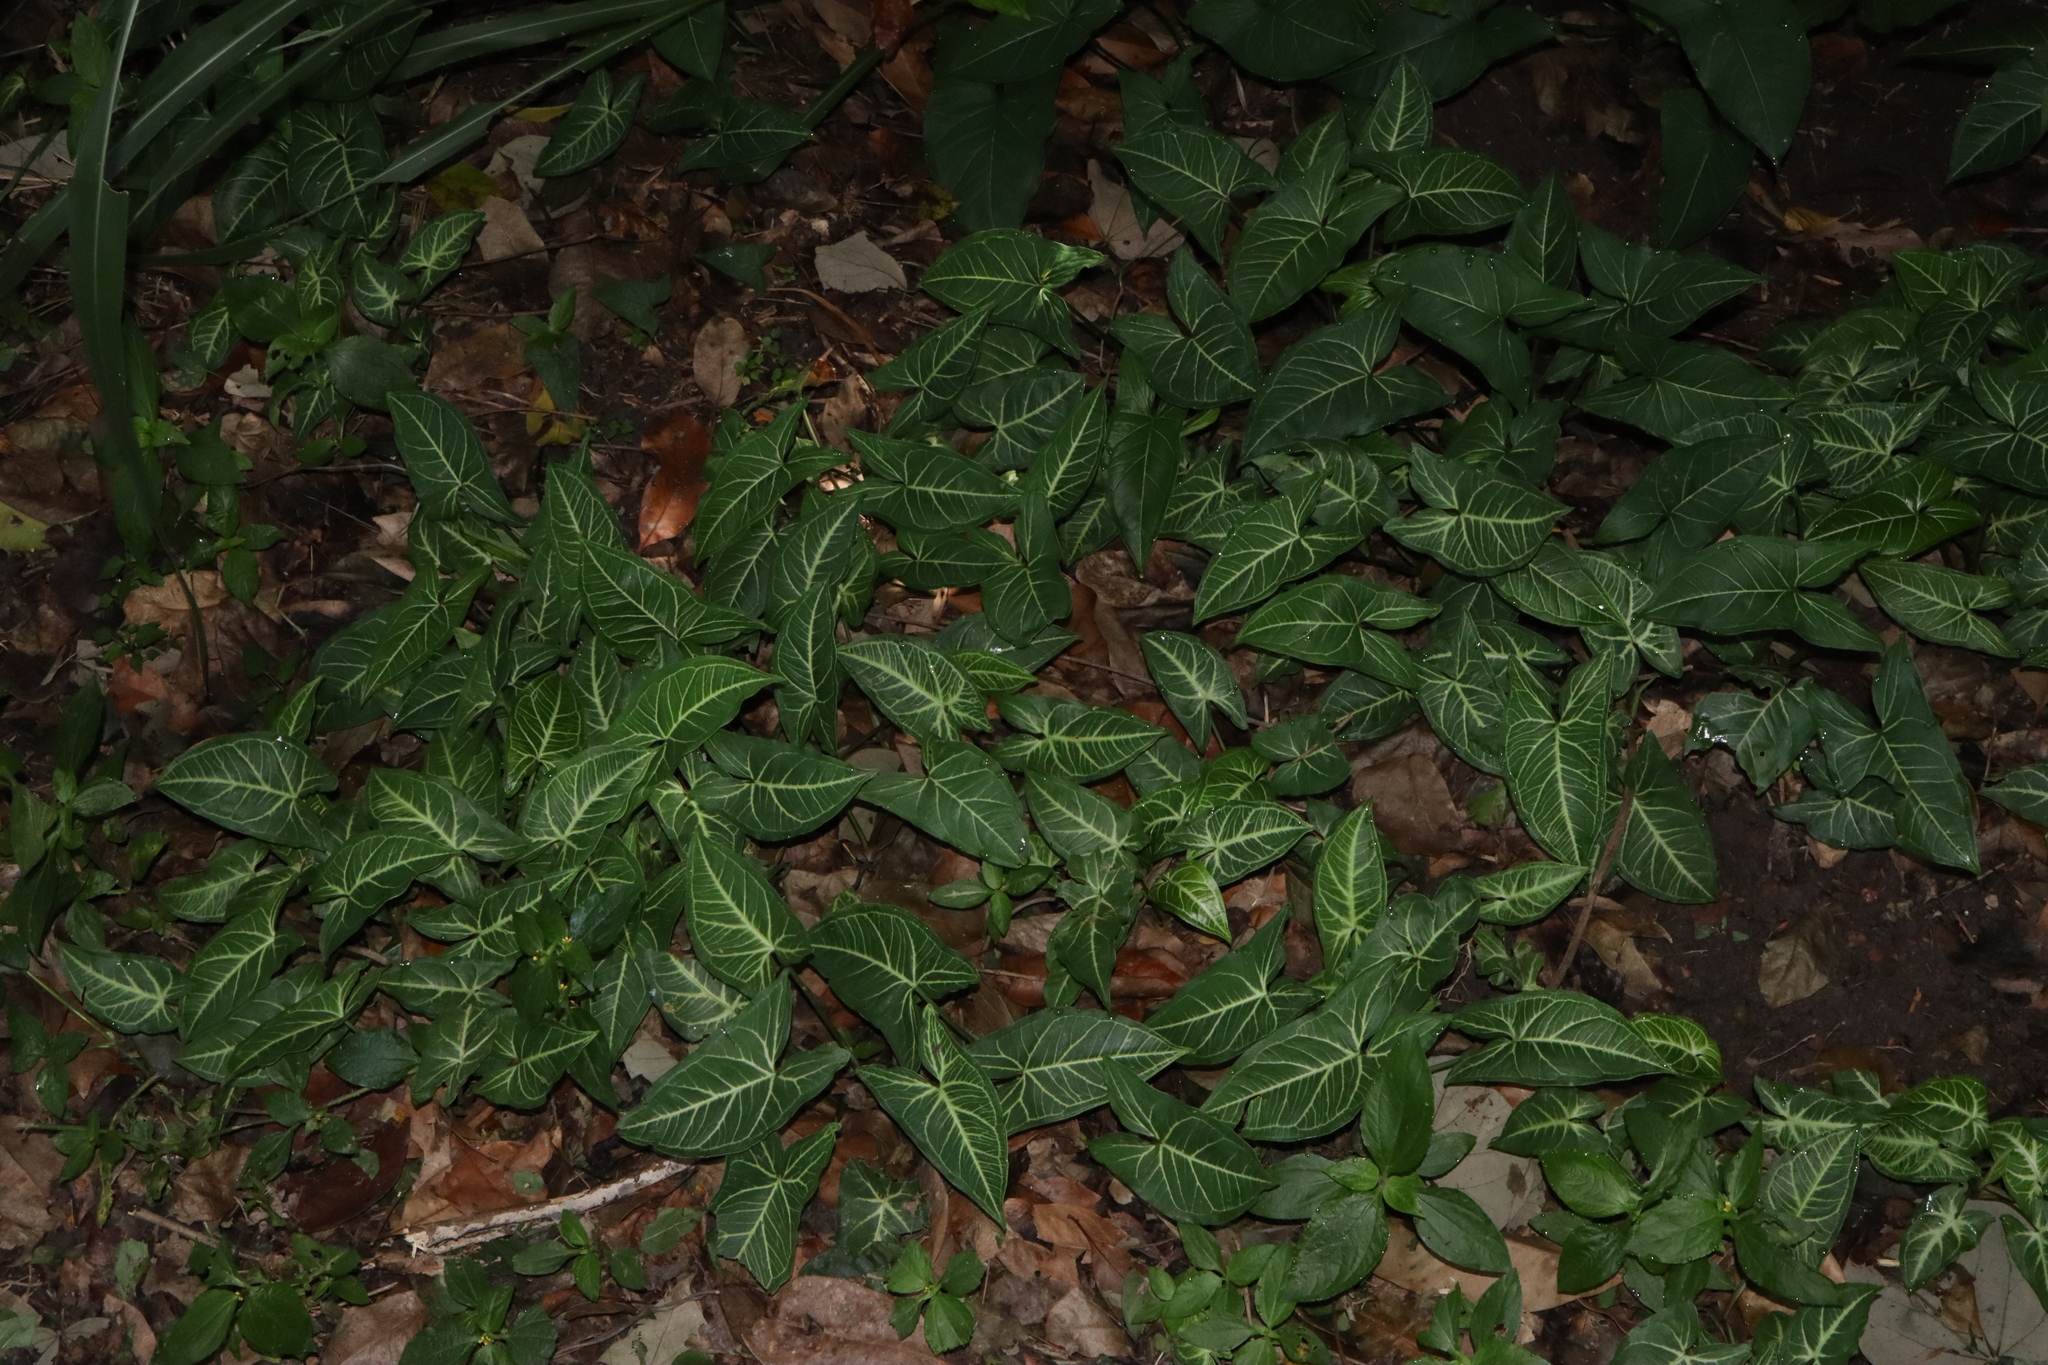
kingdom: Plantae
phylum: Tracheophyta
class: Liliopsida
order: Alismatales
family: Araceae
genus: Syngonium
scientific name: Syngonium podophyllum
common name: American evergreen
